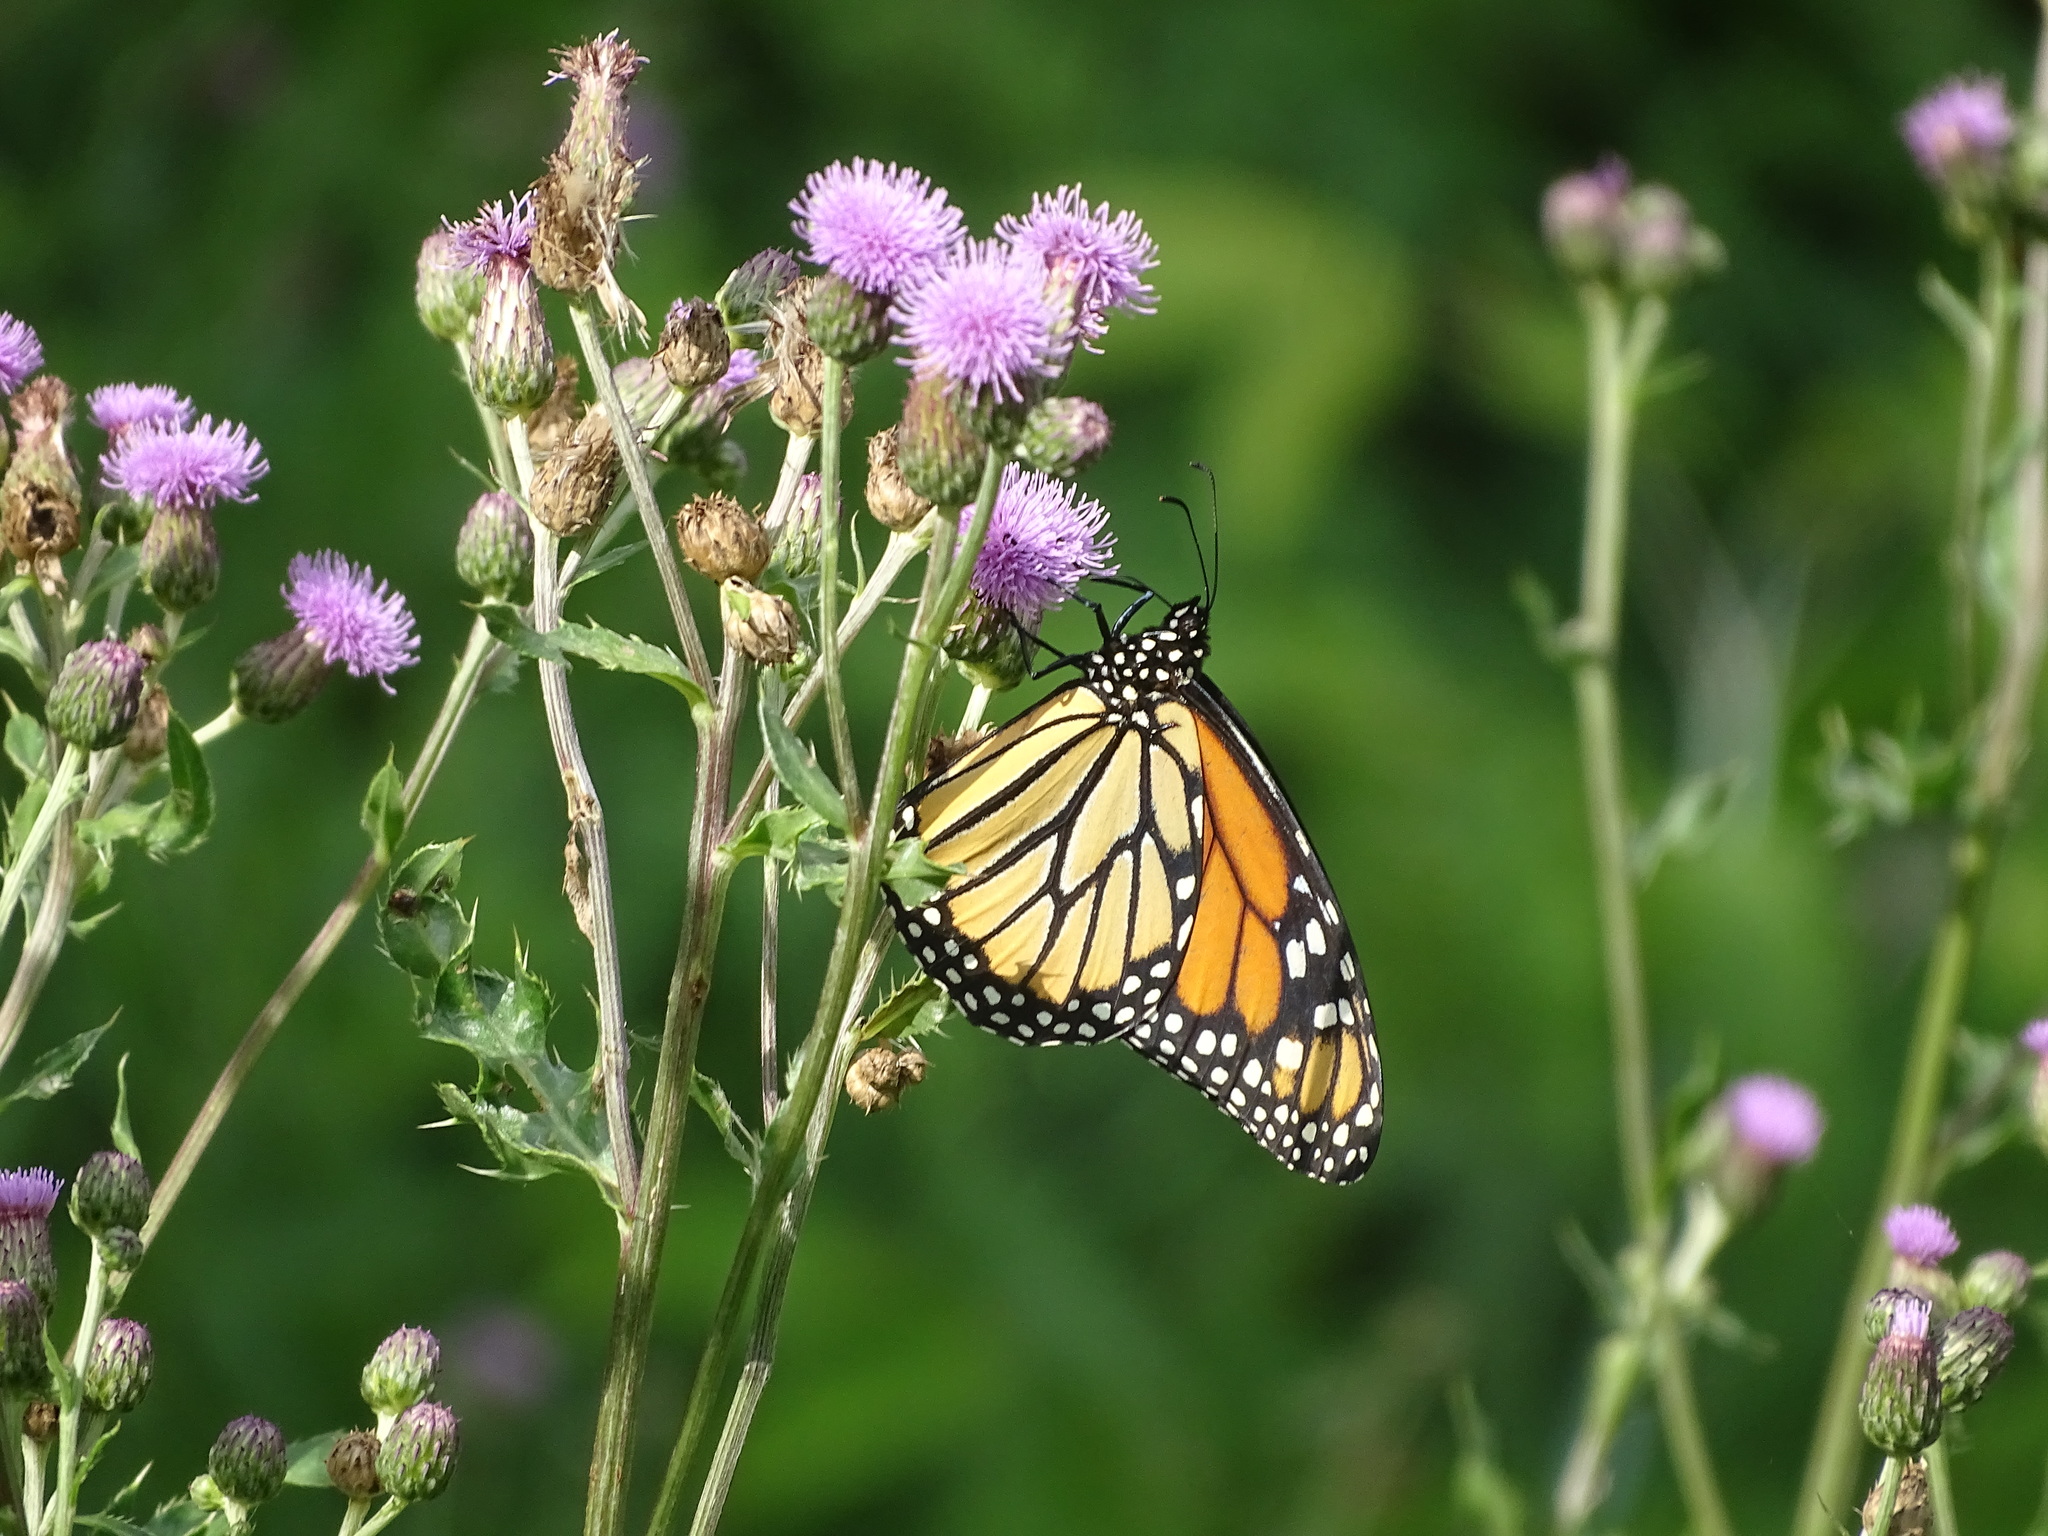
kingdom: Animalia
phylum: Arthropoda
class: Insecta
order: Lepidoptera
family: Nymphalidae
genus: Danaus
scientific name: Danaus plexippus
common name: Monarch
